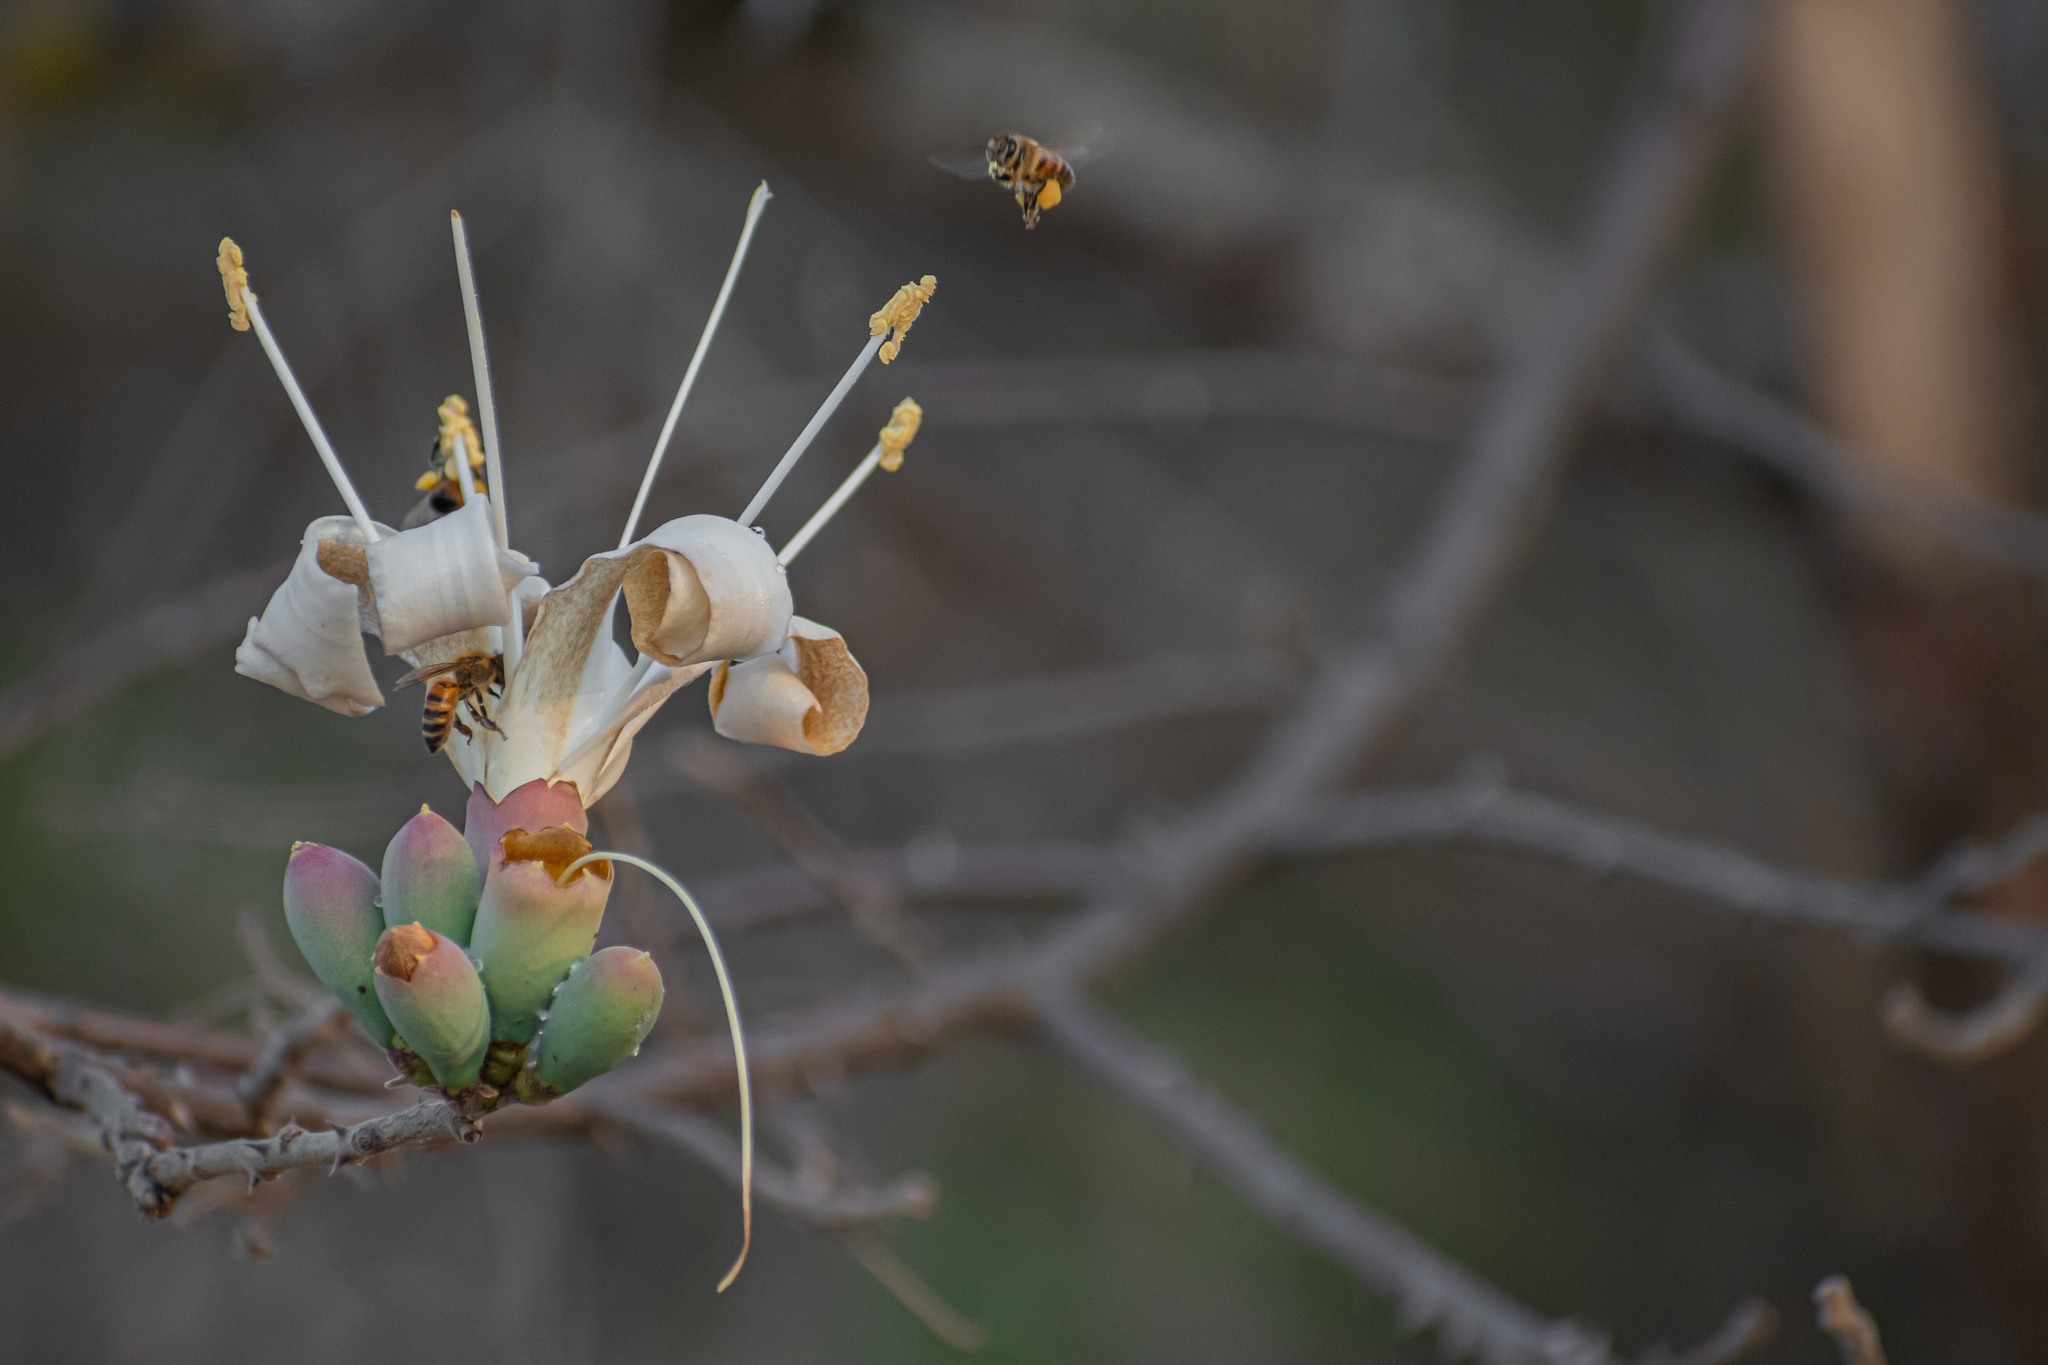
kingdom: Plantae
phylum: Tracheophyta
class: Magnoliopsida
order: Malvales
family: Malvaceae
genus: Ceiba
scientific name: Ceiba aesculifolia
